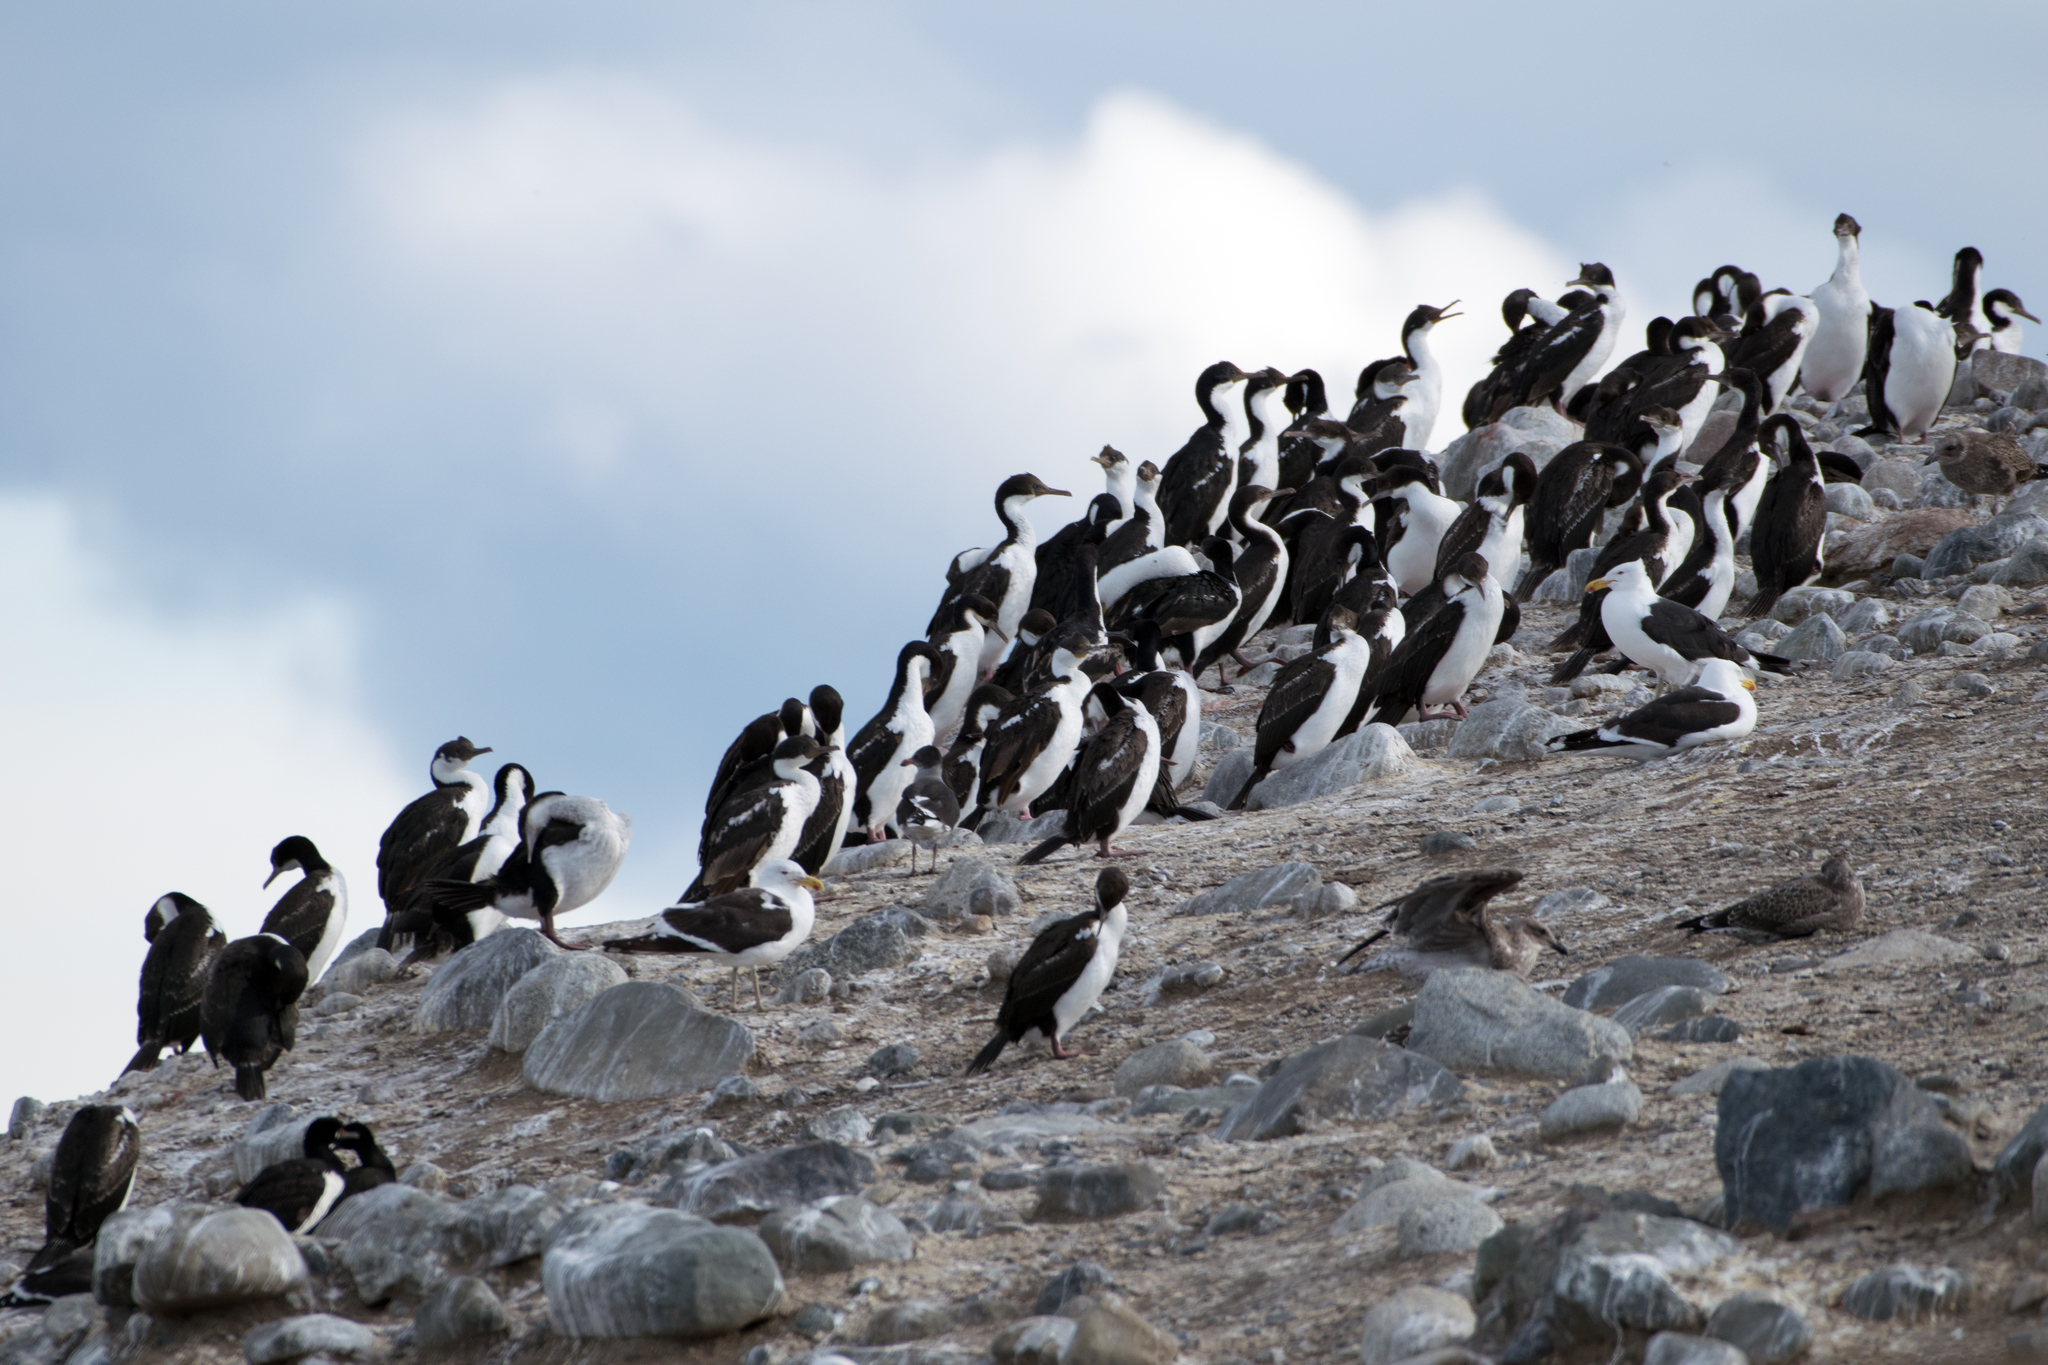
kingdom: Animalia
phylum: Chordata
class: Aves
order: Suliformes
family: Phalacrocoracidae
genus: Leucocarbo
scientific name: Leucocarbo atriceps
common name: Imperial shag
